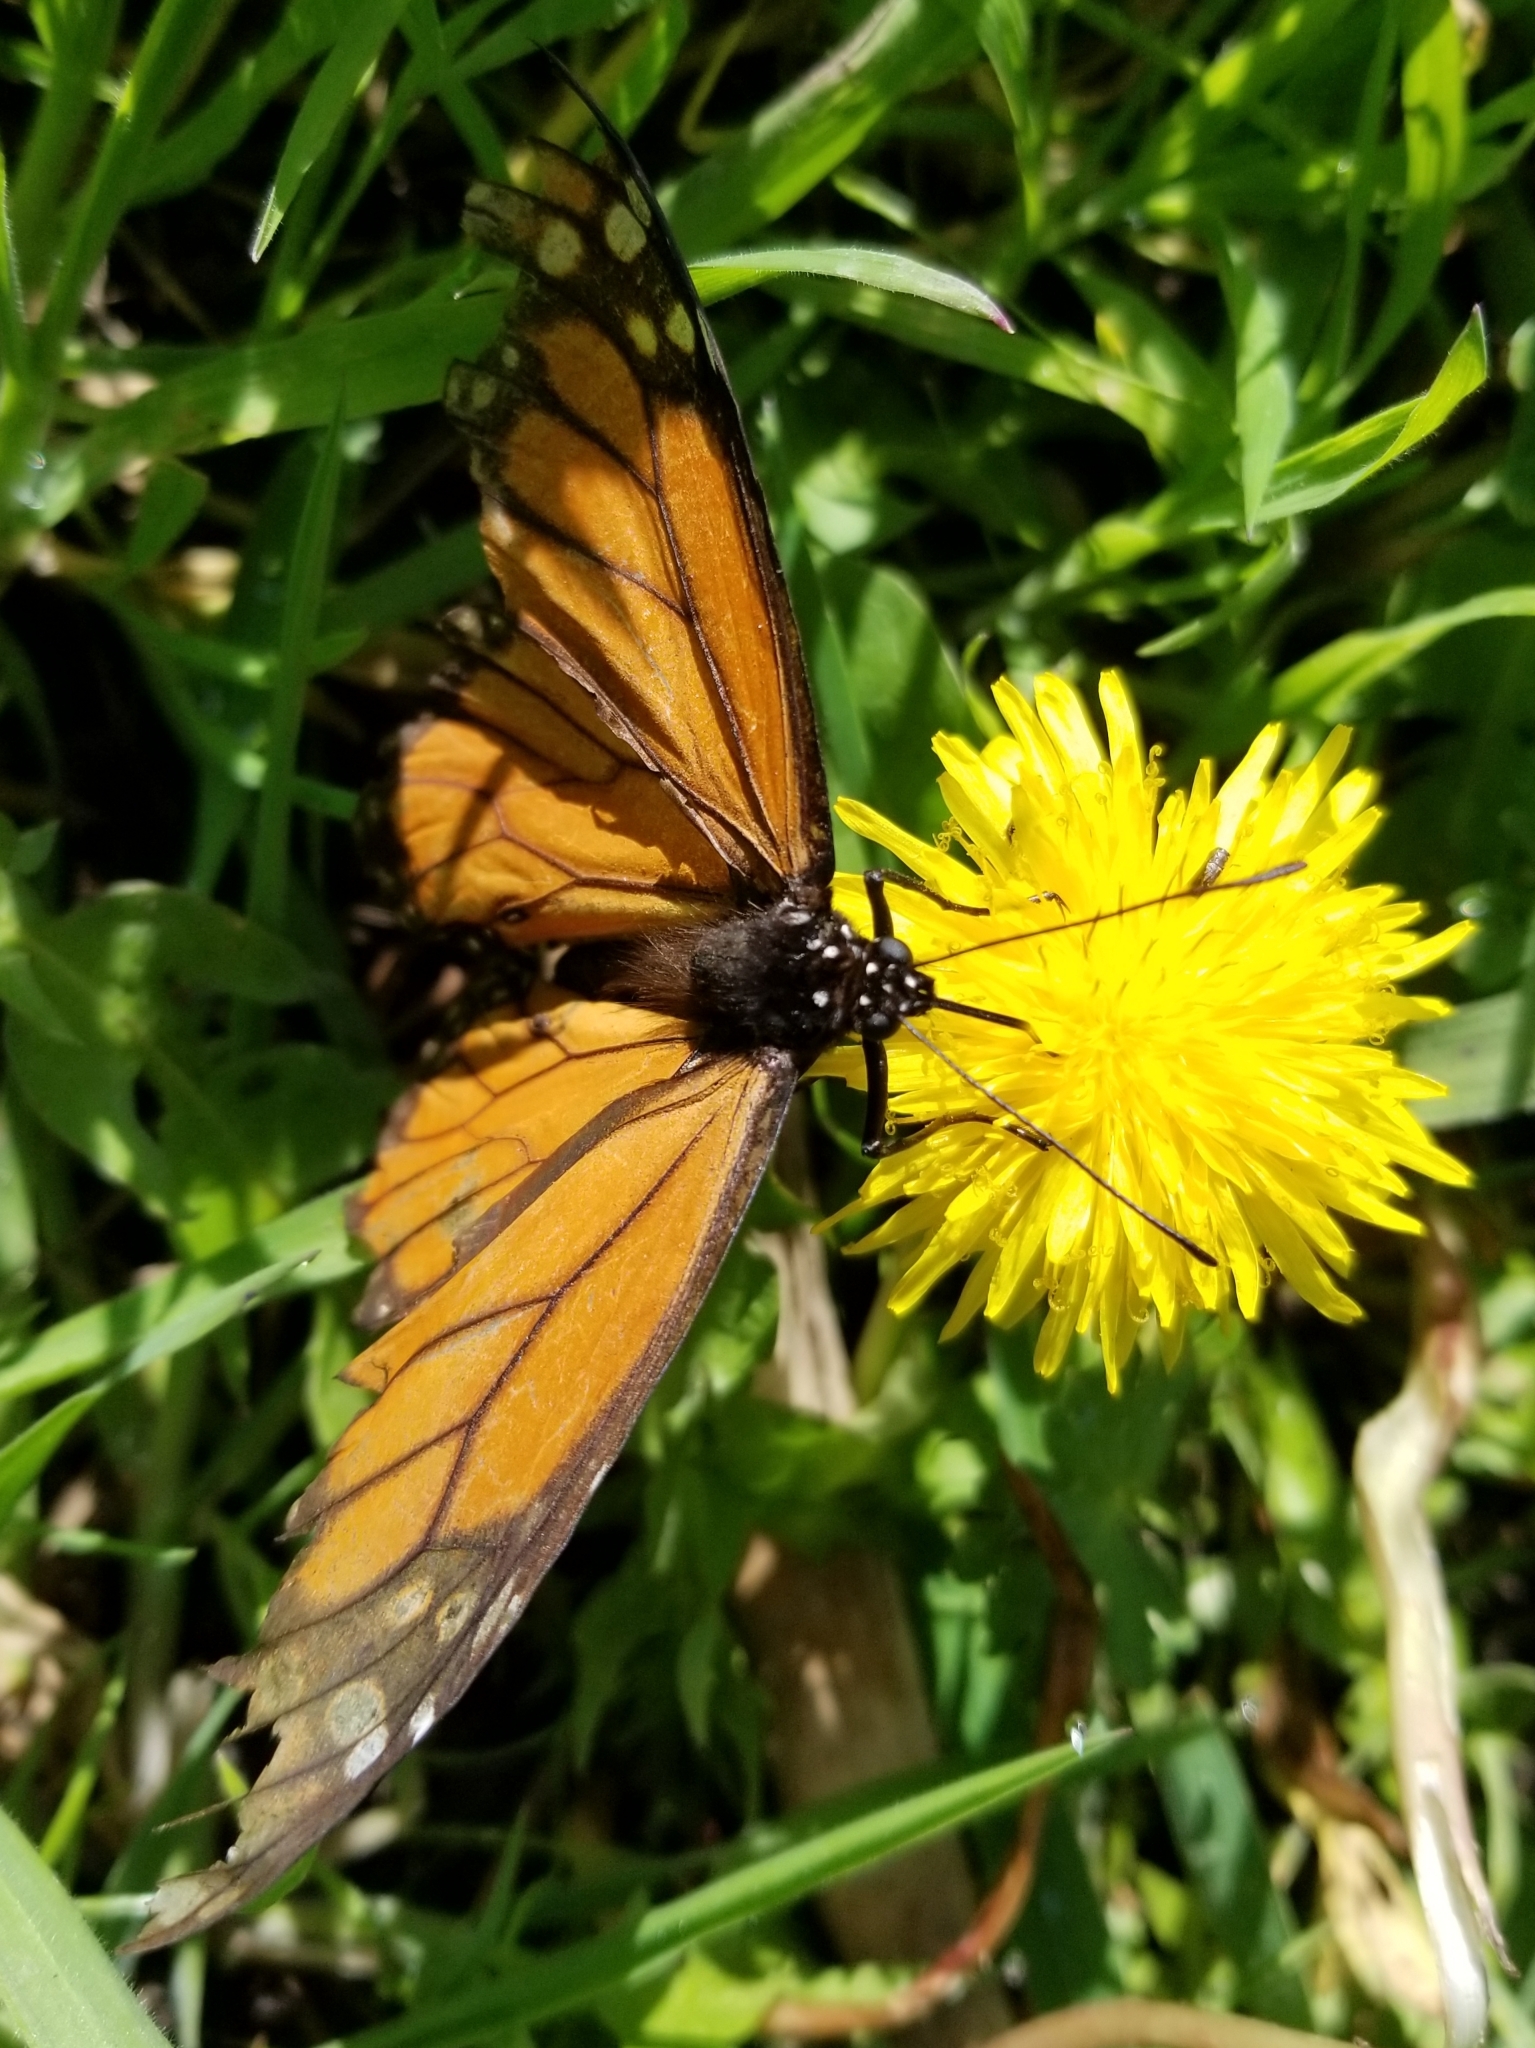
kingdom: Animalia
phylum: Arthropoda
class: Insecta
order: Lepidoptera
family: Nymphalidae
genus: Danaus
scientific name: Danaus plexippus
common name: Monarch
